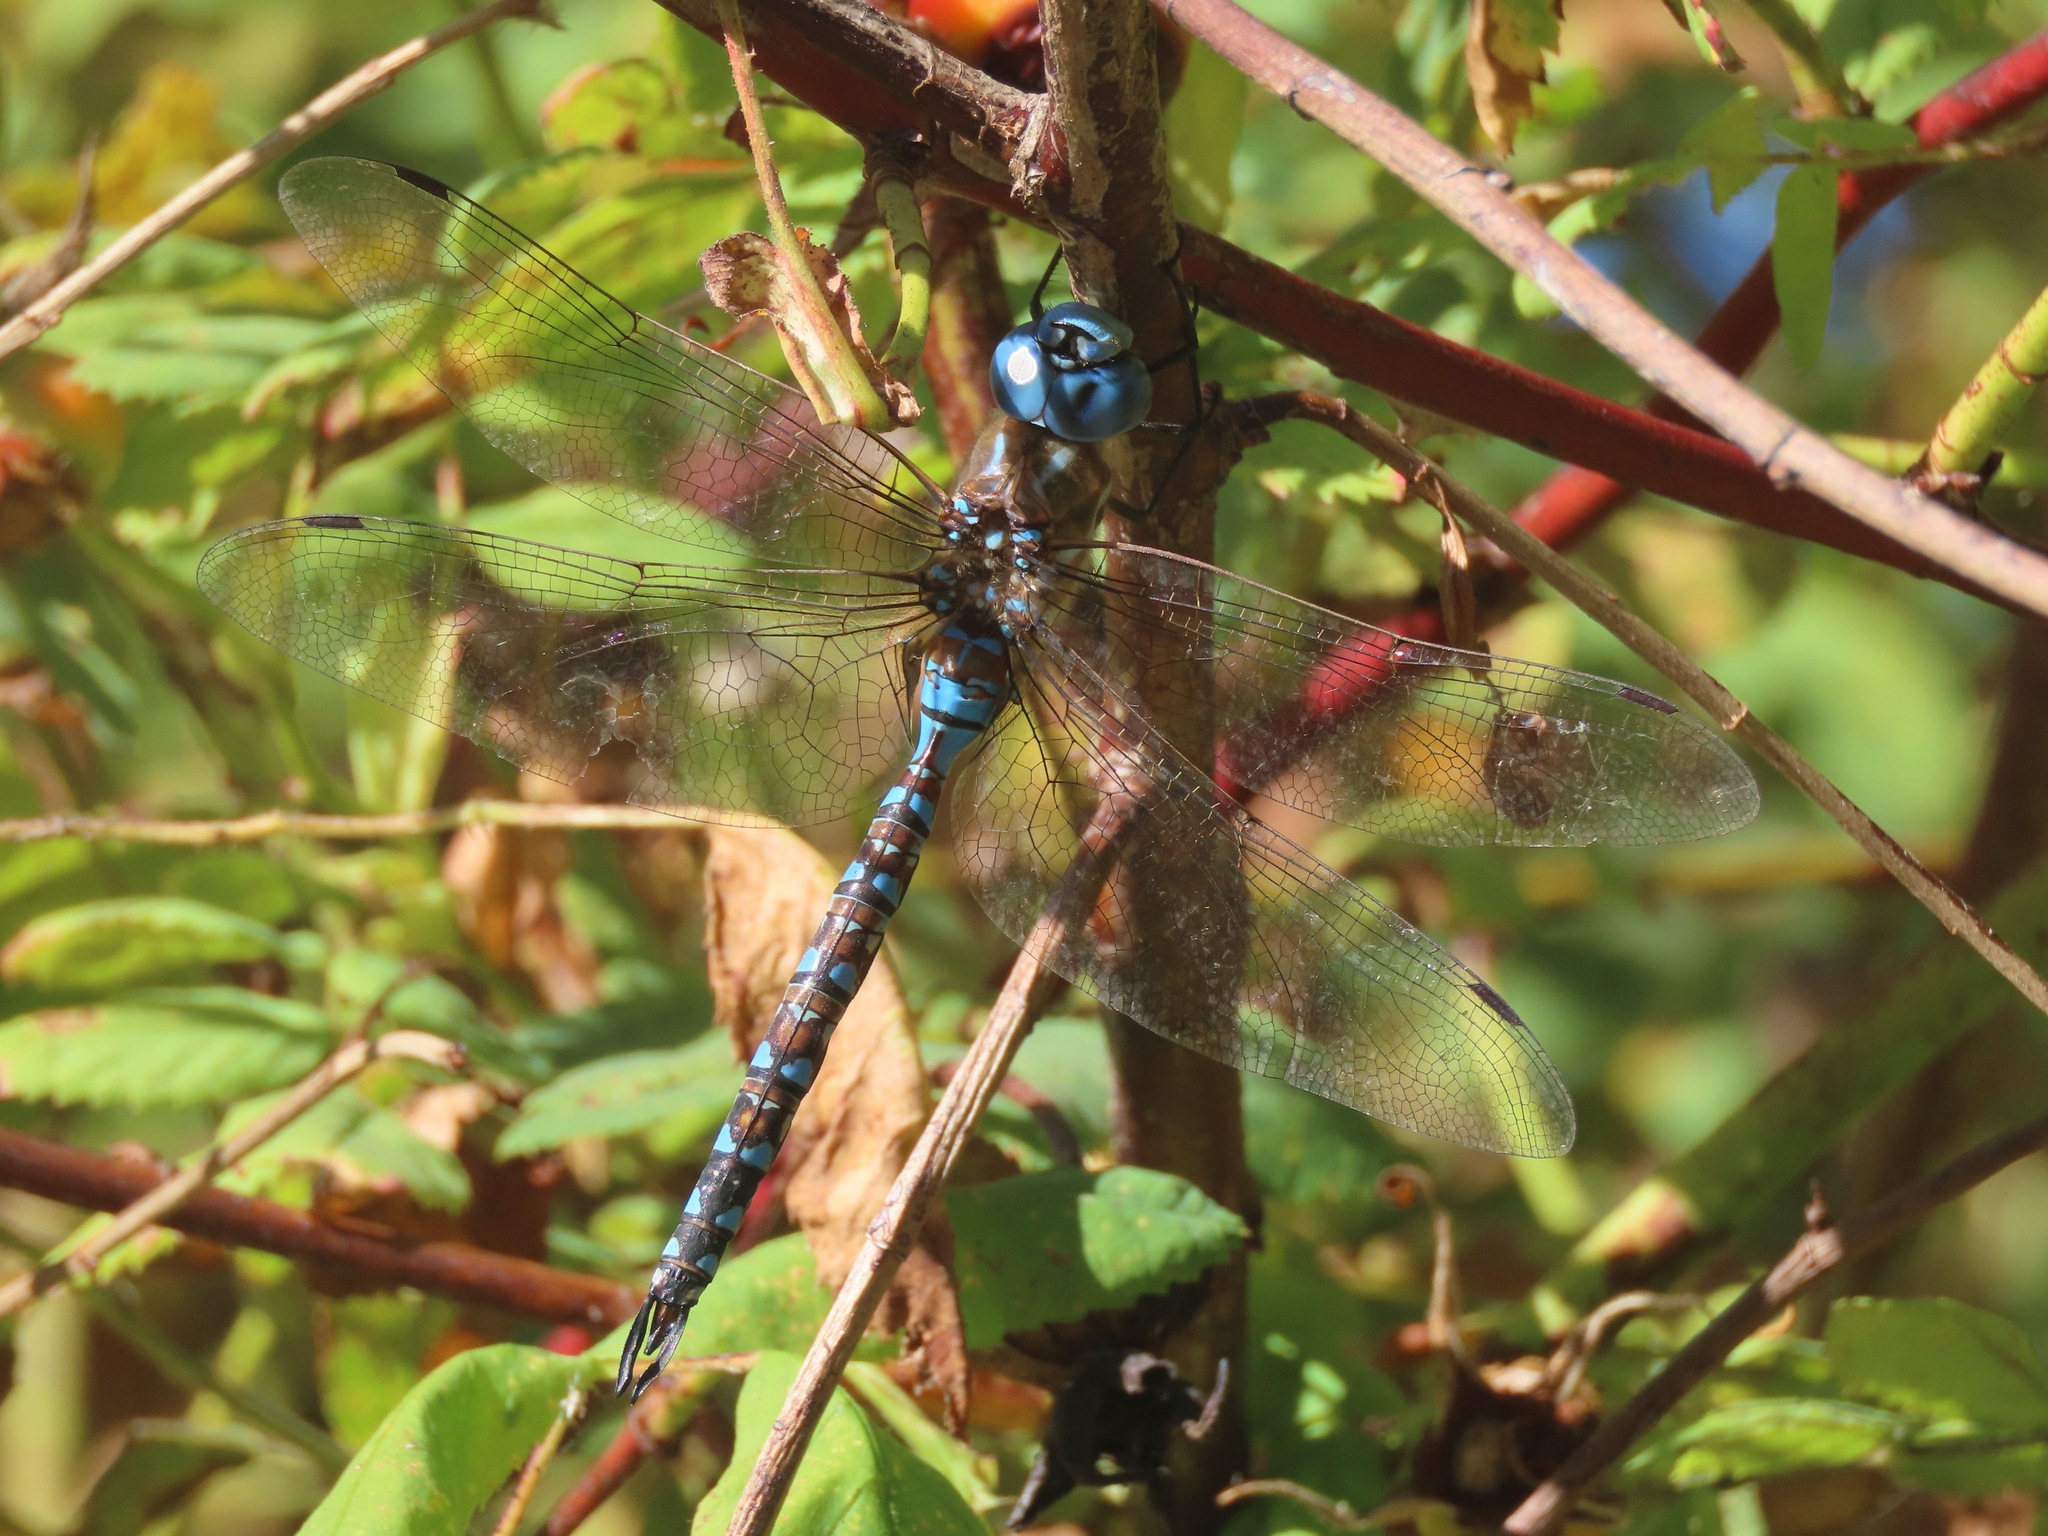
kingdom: Animalia
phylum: Arthropoda
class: Insecta
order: Odonata
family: Aeshnidae
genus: Rhionaeschna
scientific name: Rhionaeschna multicolor
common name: Blue-eyed darner
